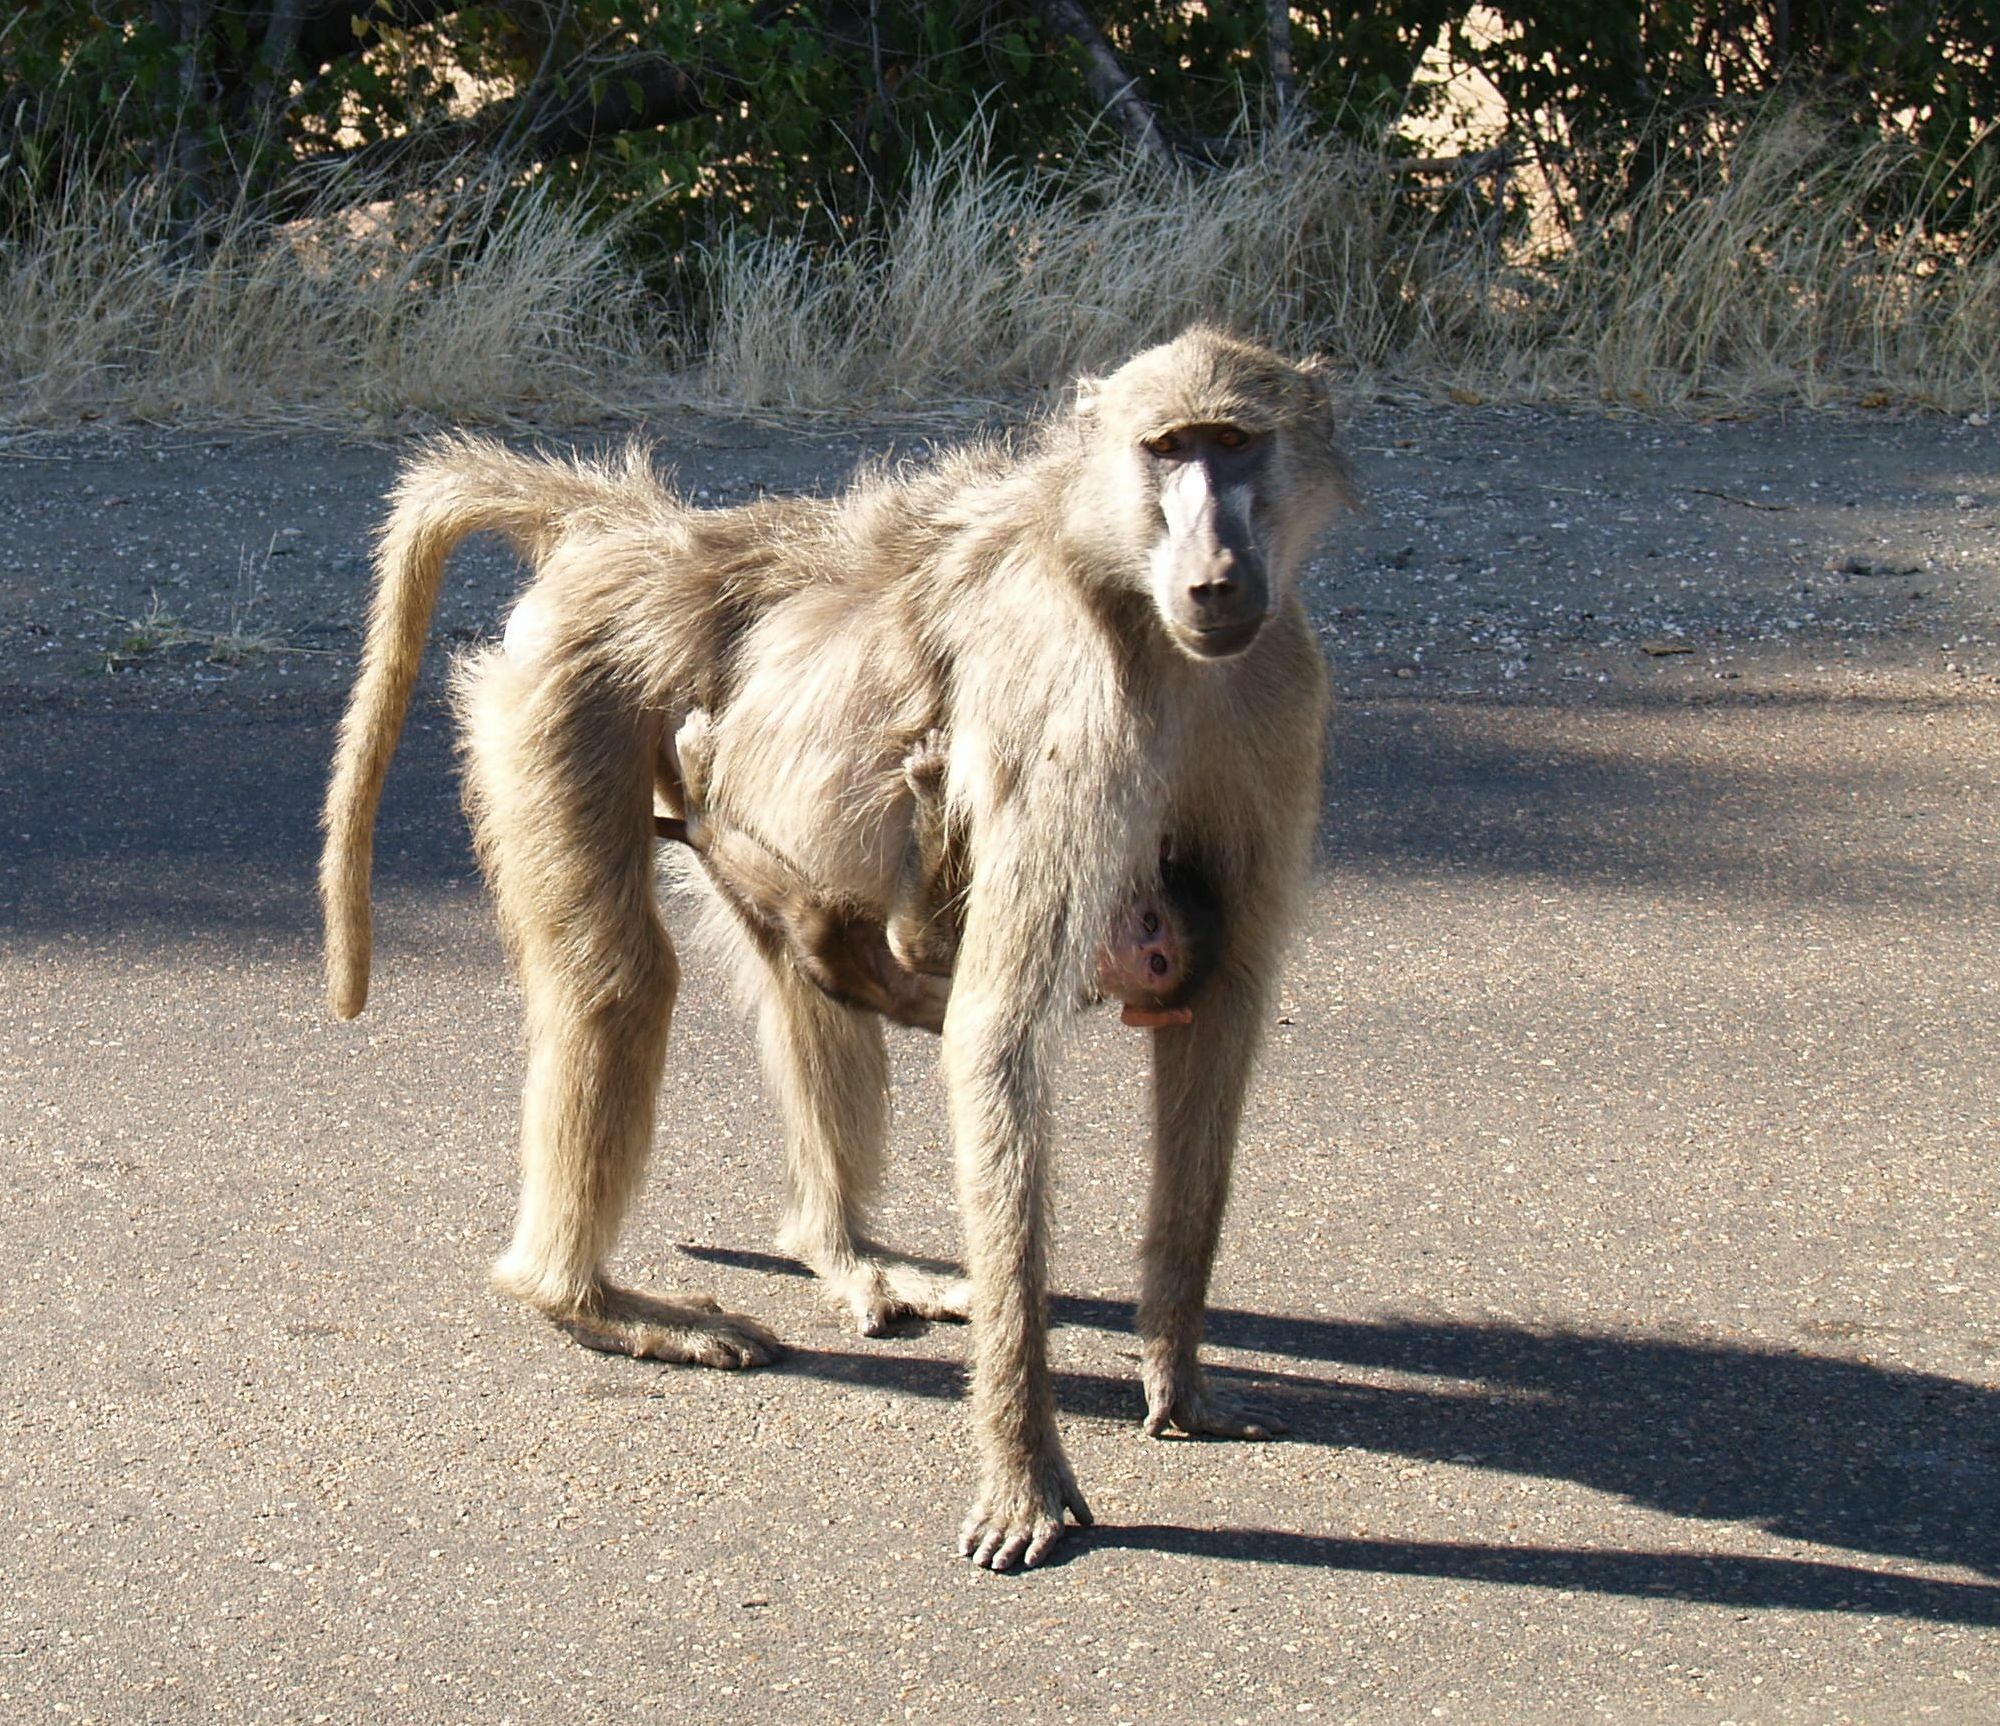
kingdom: Animalia
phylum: Chordata
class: Mammalia
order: Primates
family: Cercopithecidae
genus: Papio
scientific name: Papio ursinus
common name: Chacma baboon
